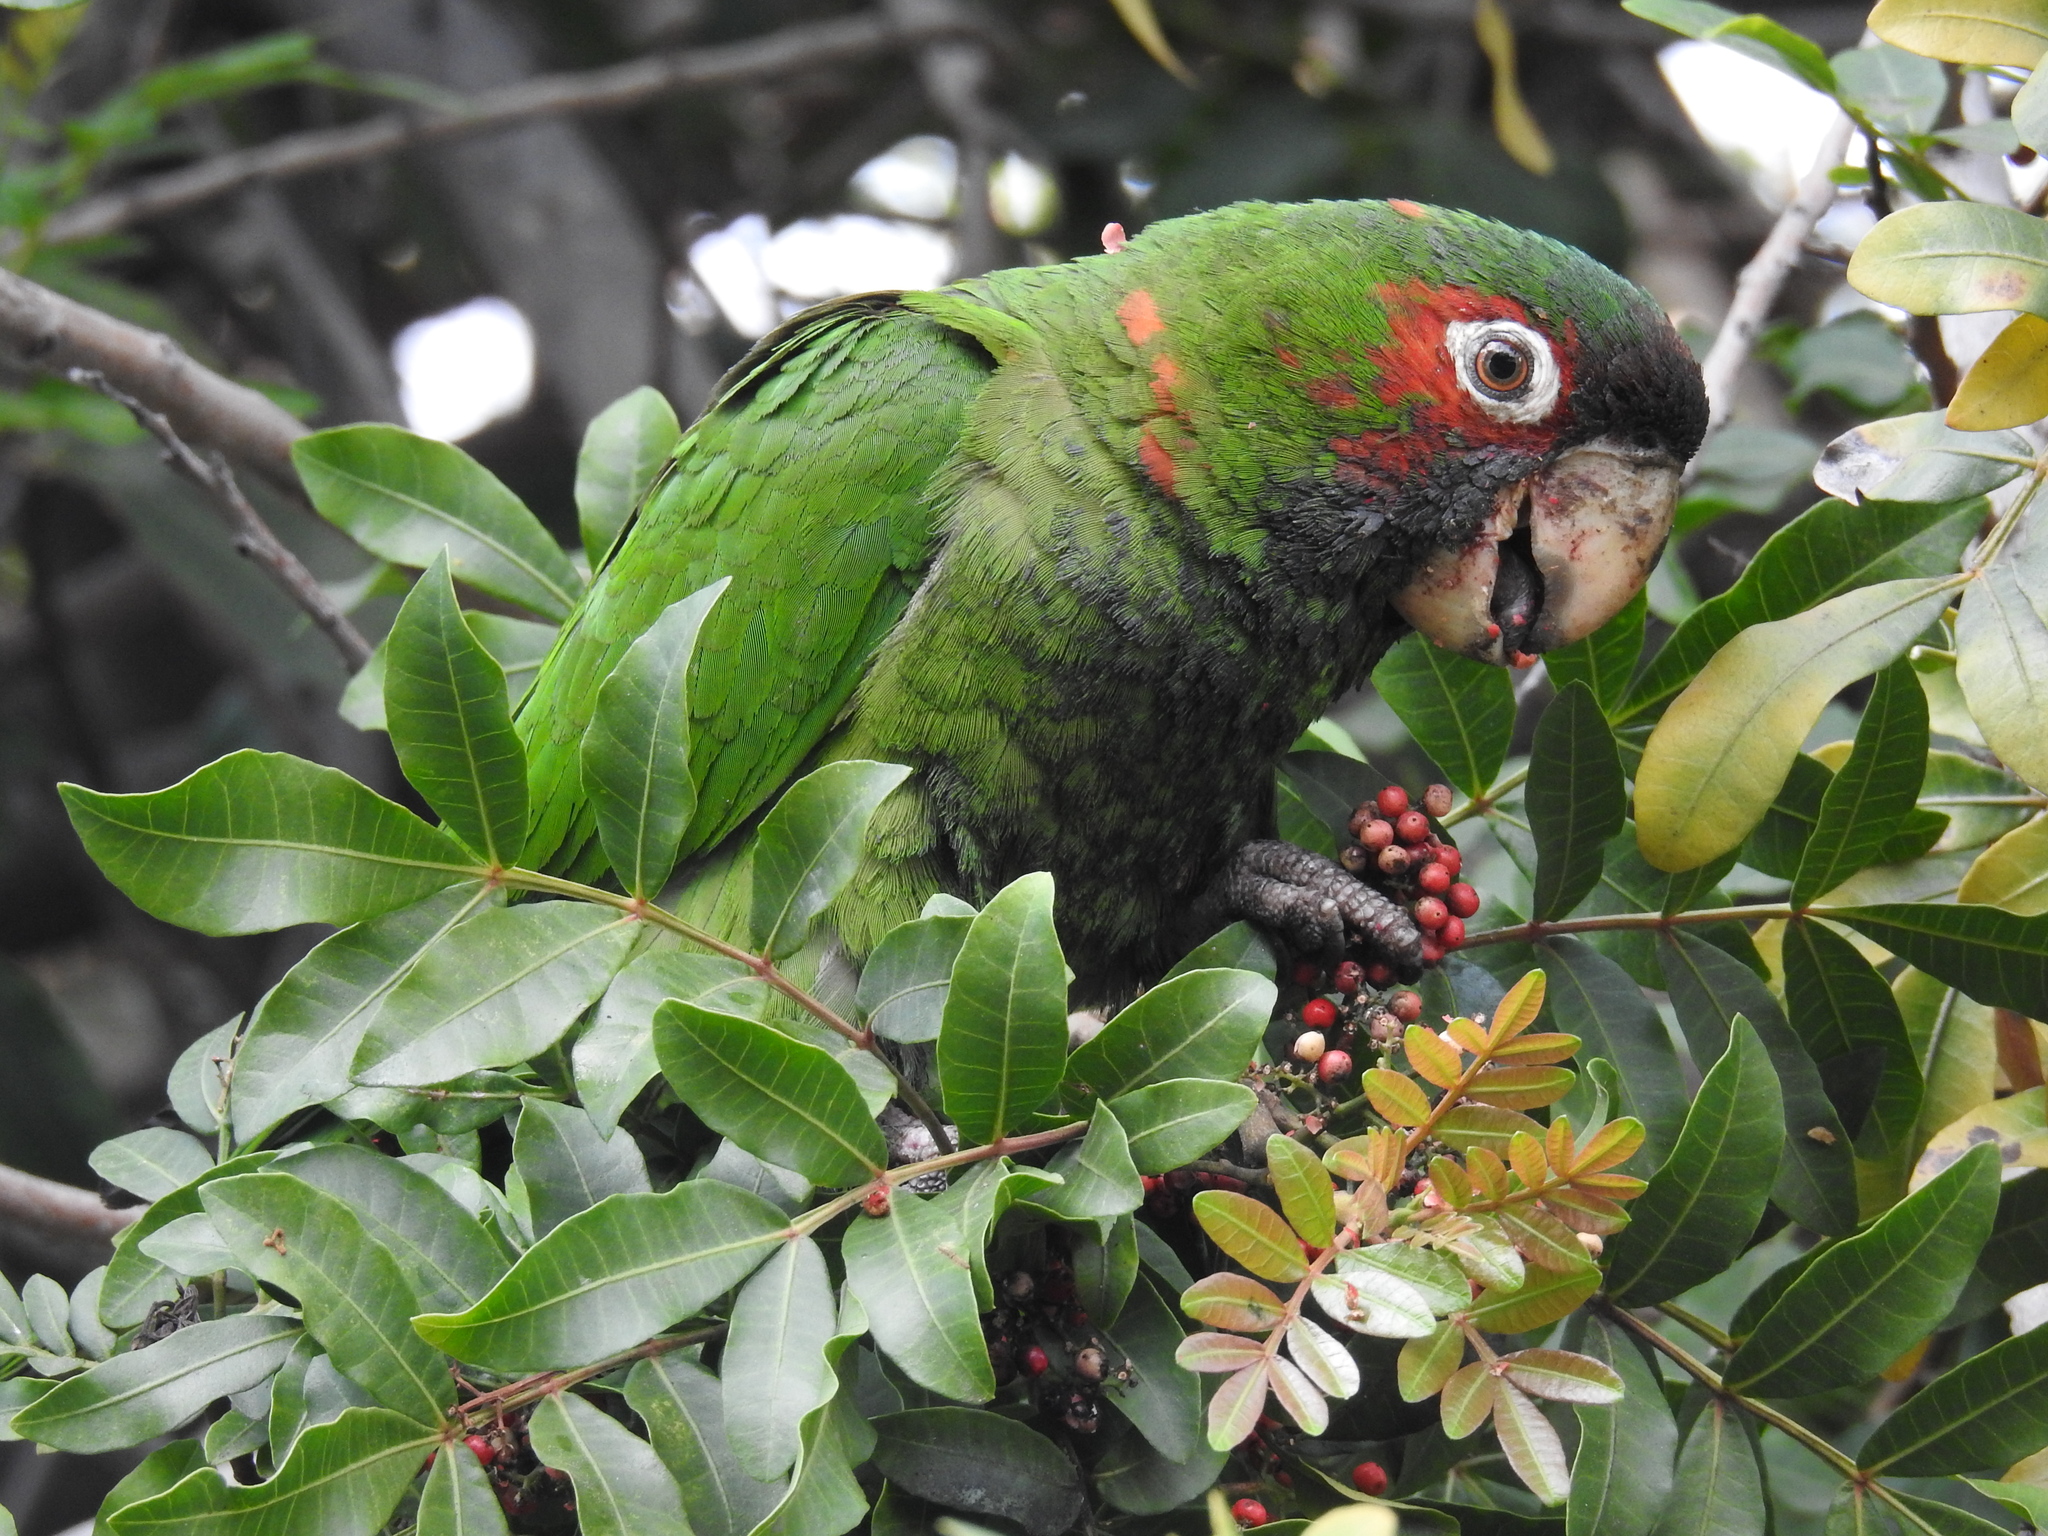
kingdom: Animalia
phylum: Chordata
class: Aves
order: Psittaciformes
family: Psittacidae
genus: Aratinga
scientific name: Aratinga mitrata
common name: Mitred parakeet
